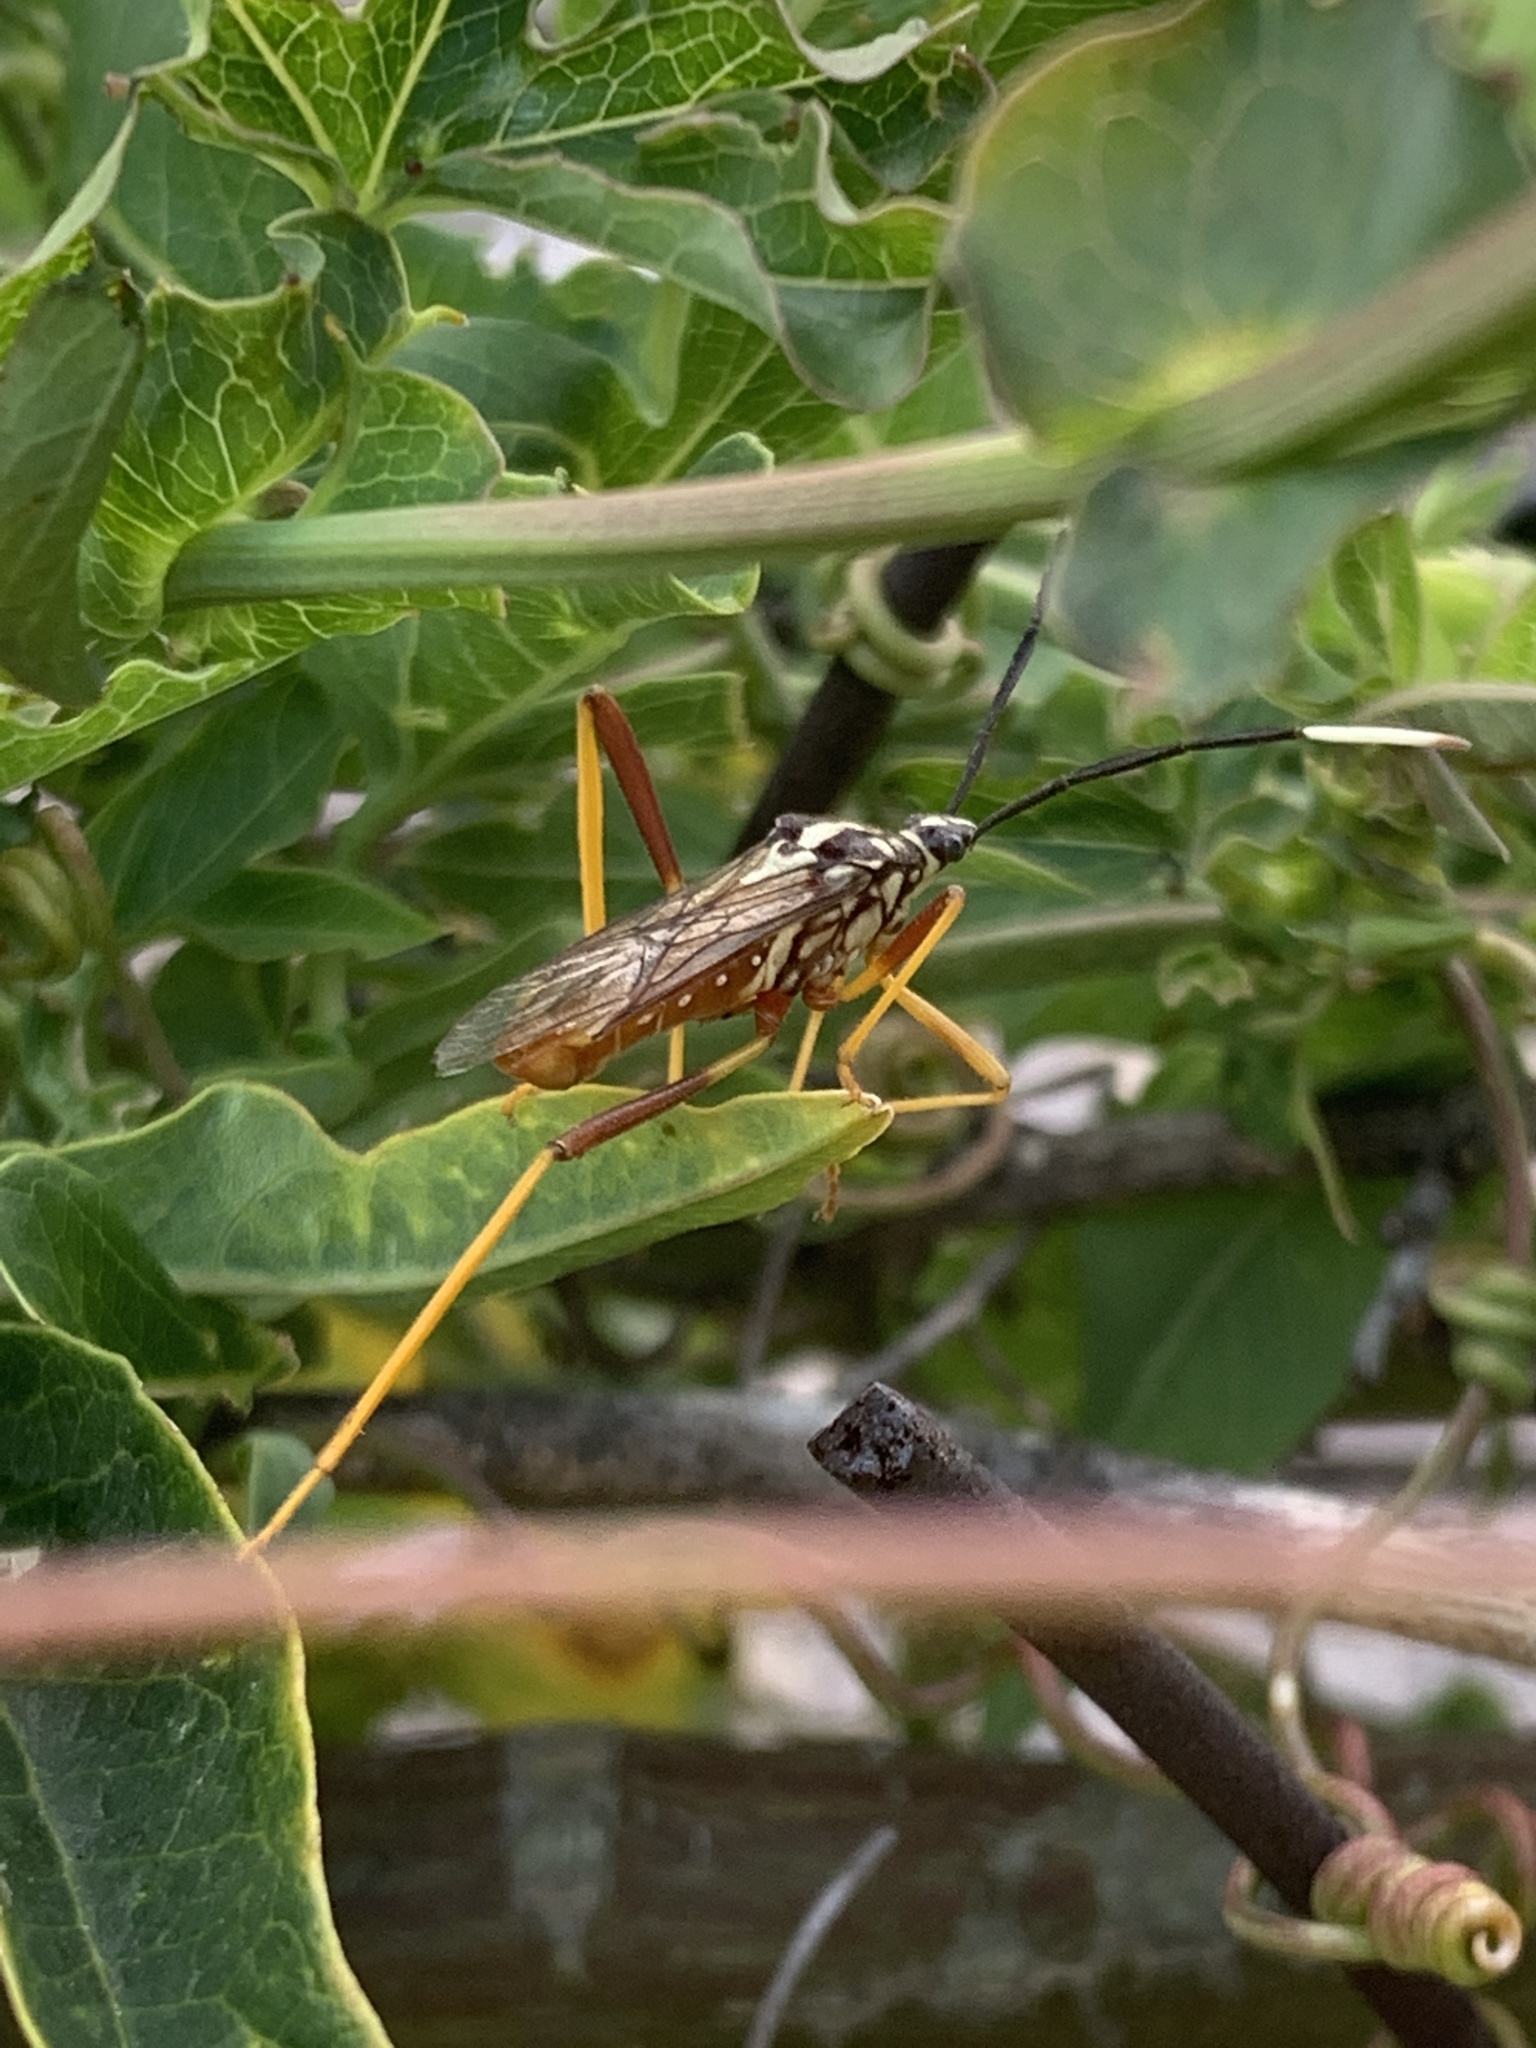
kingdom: Animalia
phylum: Arthropoda
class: Insecta
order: Hemiptera
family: Coreidae
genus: Holhymenia
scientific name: Holhymenia histrio
